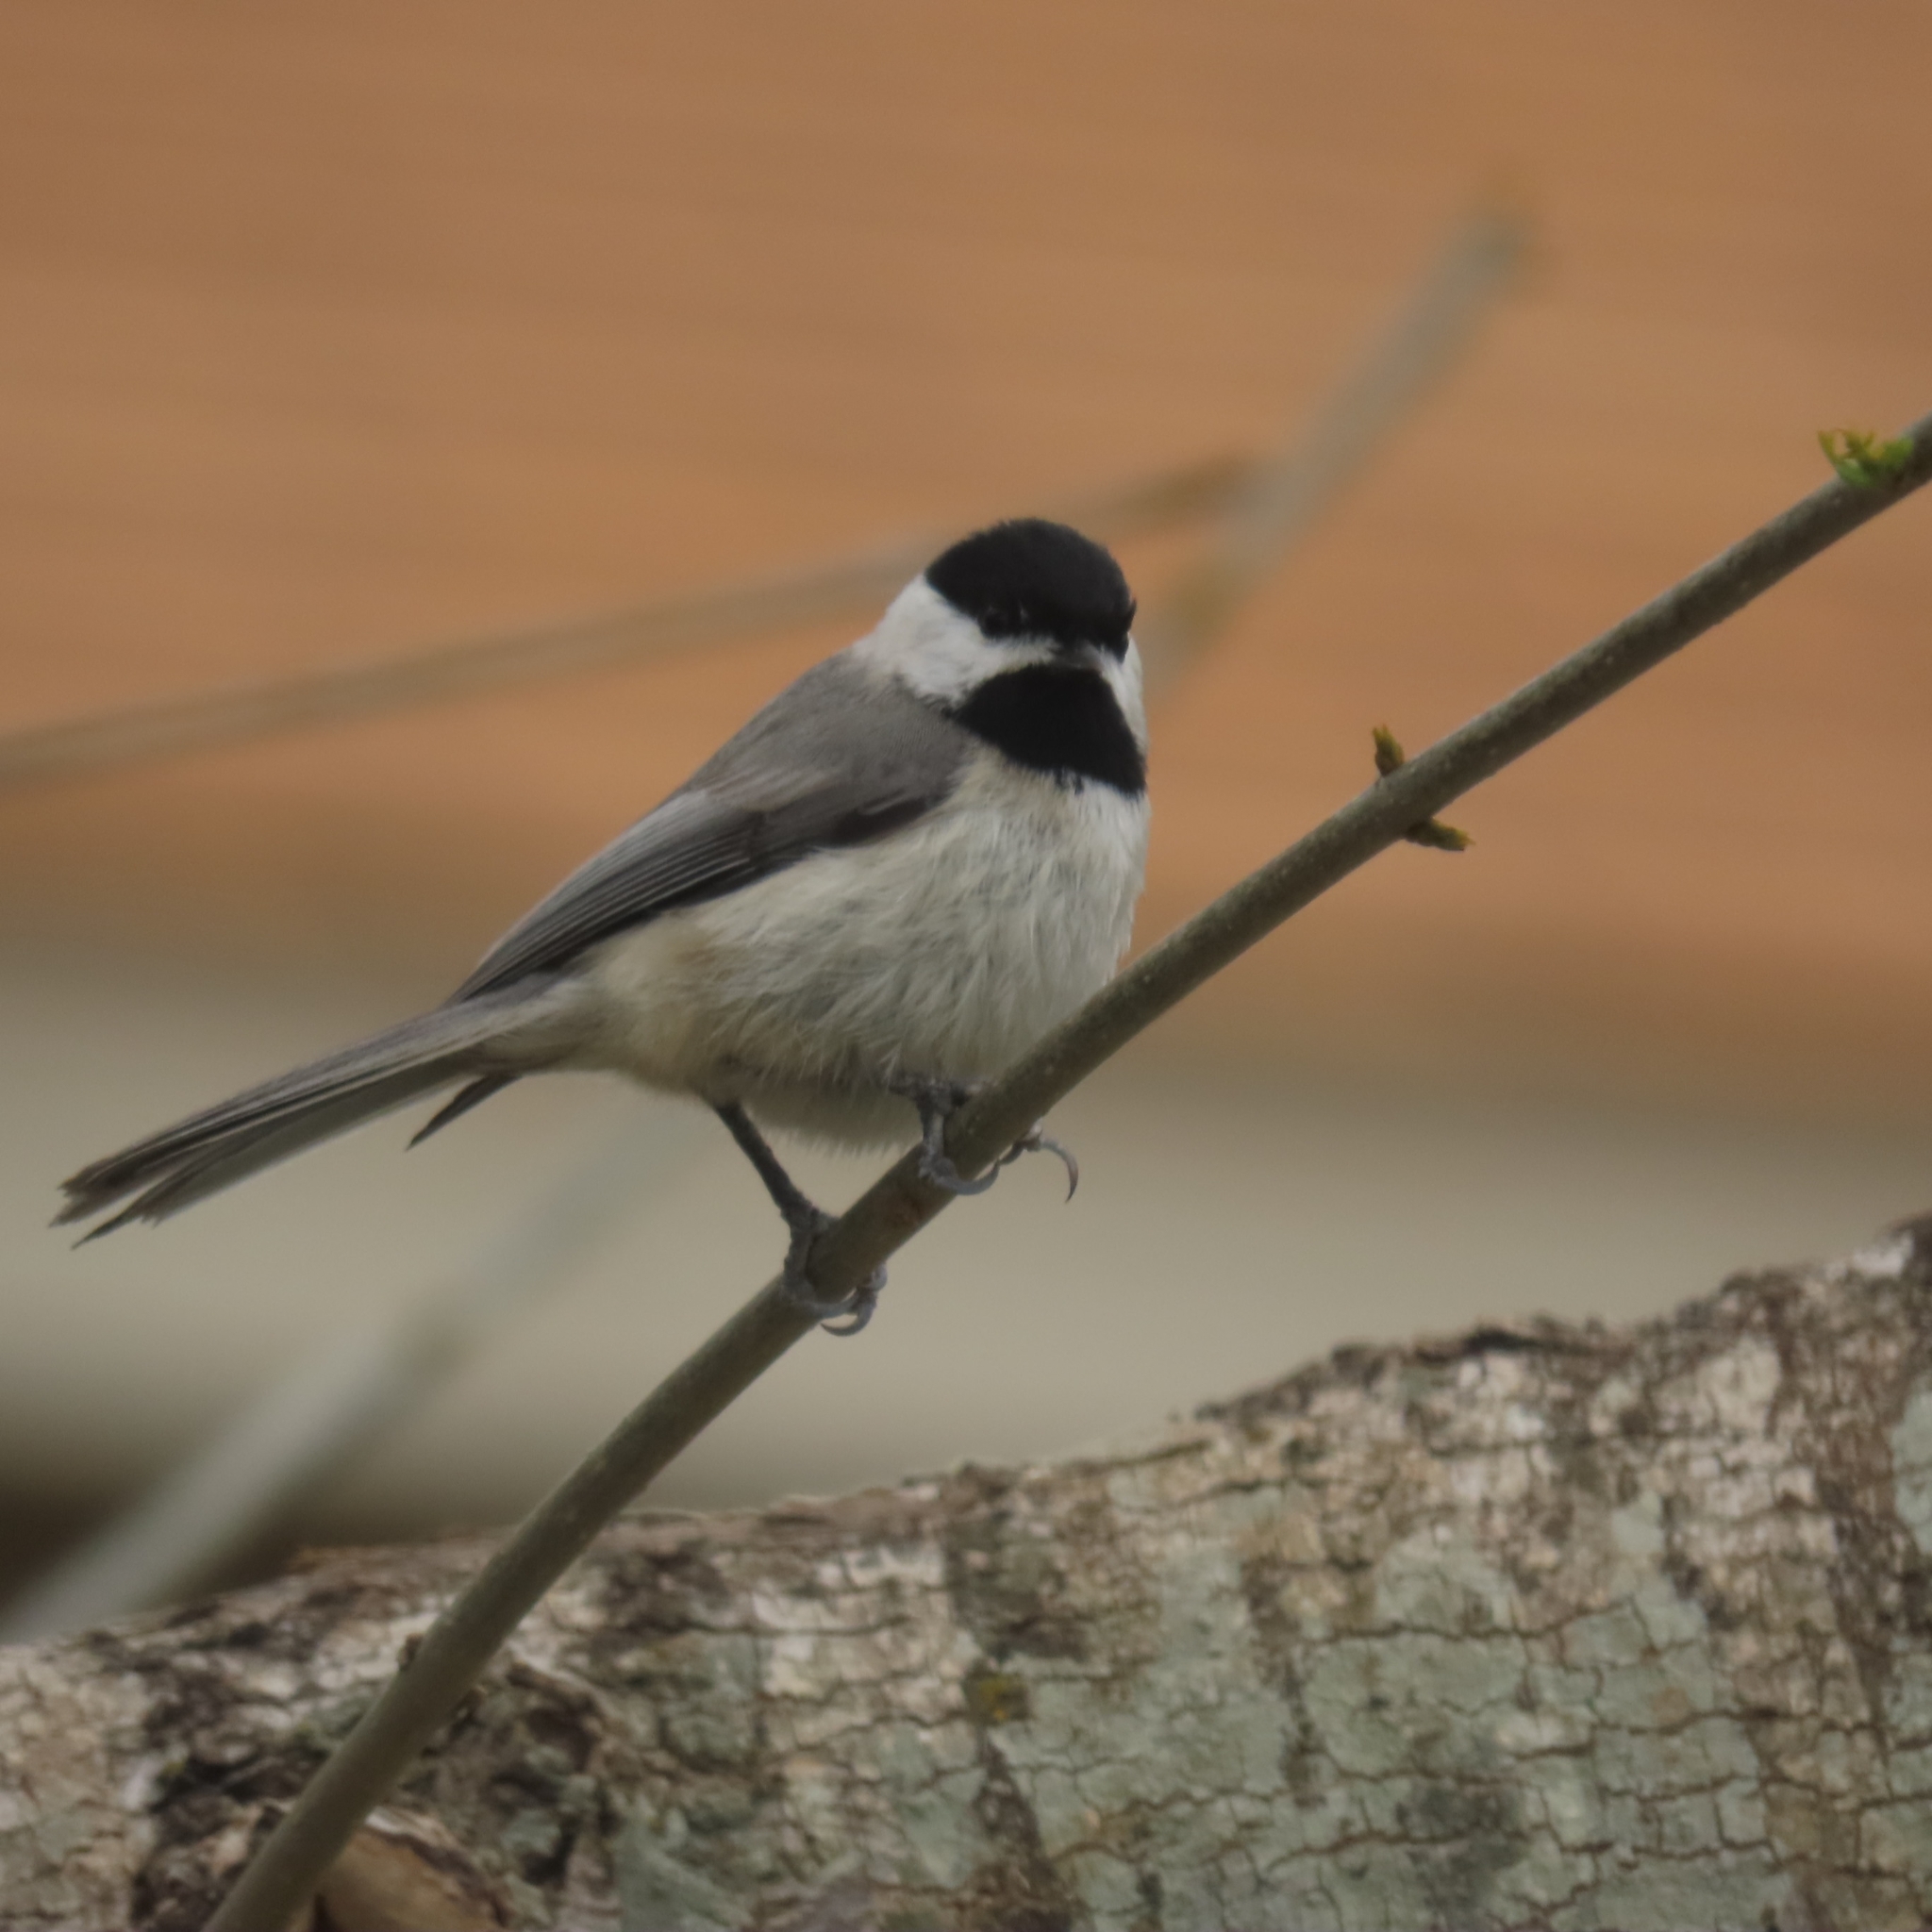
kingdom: Animalia
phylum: Chordata
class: Aves
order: Passeriformes
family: Paridae
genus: Poecile
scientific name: Poecile carolinensis
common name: Carolina chickadee
